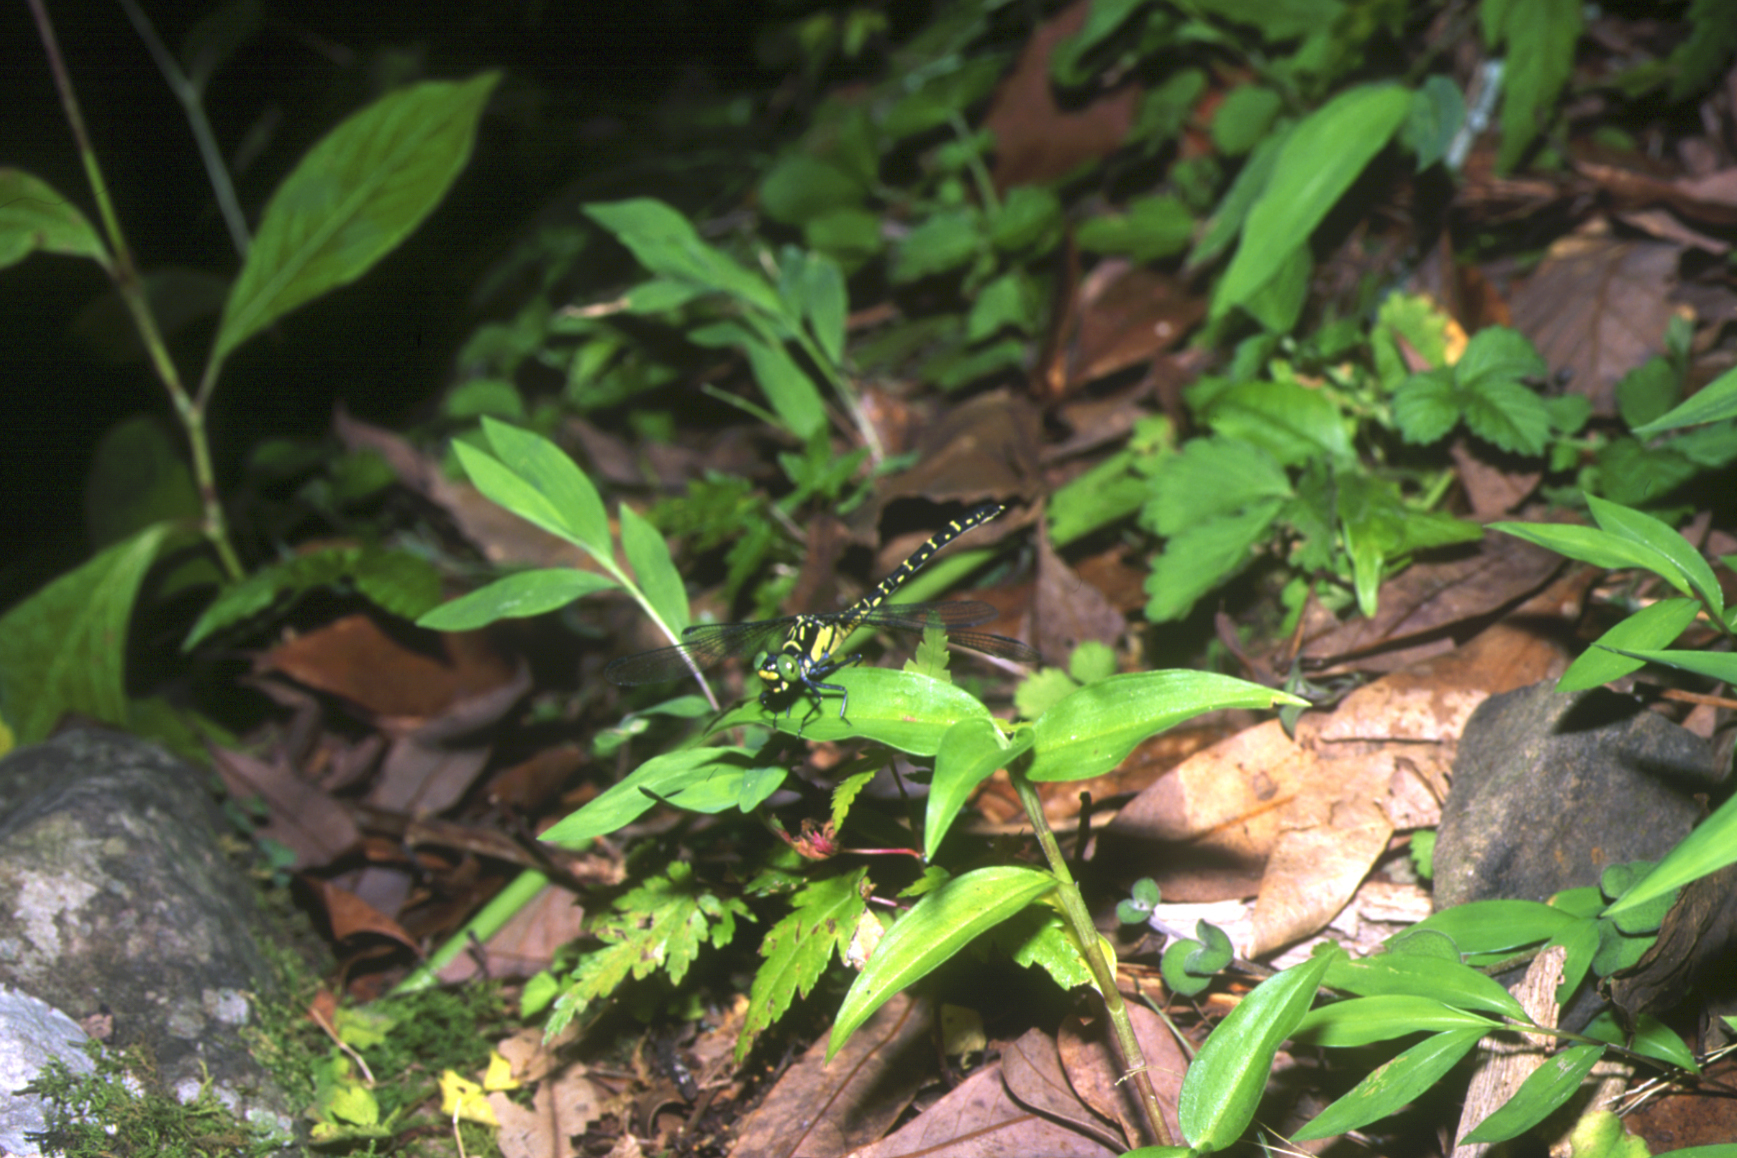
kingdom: Animalia
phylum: Arthropoda
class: Insecta
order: Odonata
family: Gomphidae
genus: Sinogomphus
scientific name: Sinogomphus flavolimbatus
